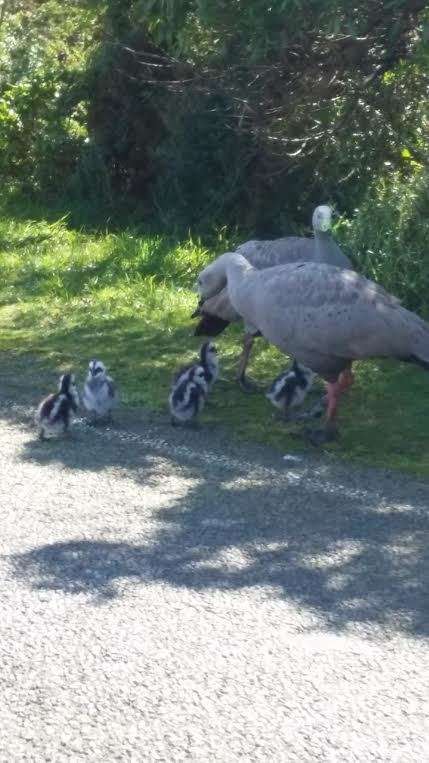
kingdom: Animalia
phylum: Chordata
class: Aves
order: Anseriformes
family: Anatidae
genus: Cereopsis
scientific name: Cereopsis novaehollandiae
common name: Cape barren goose
